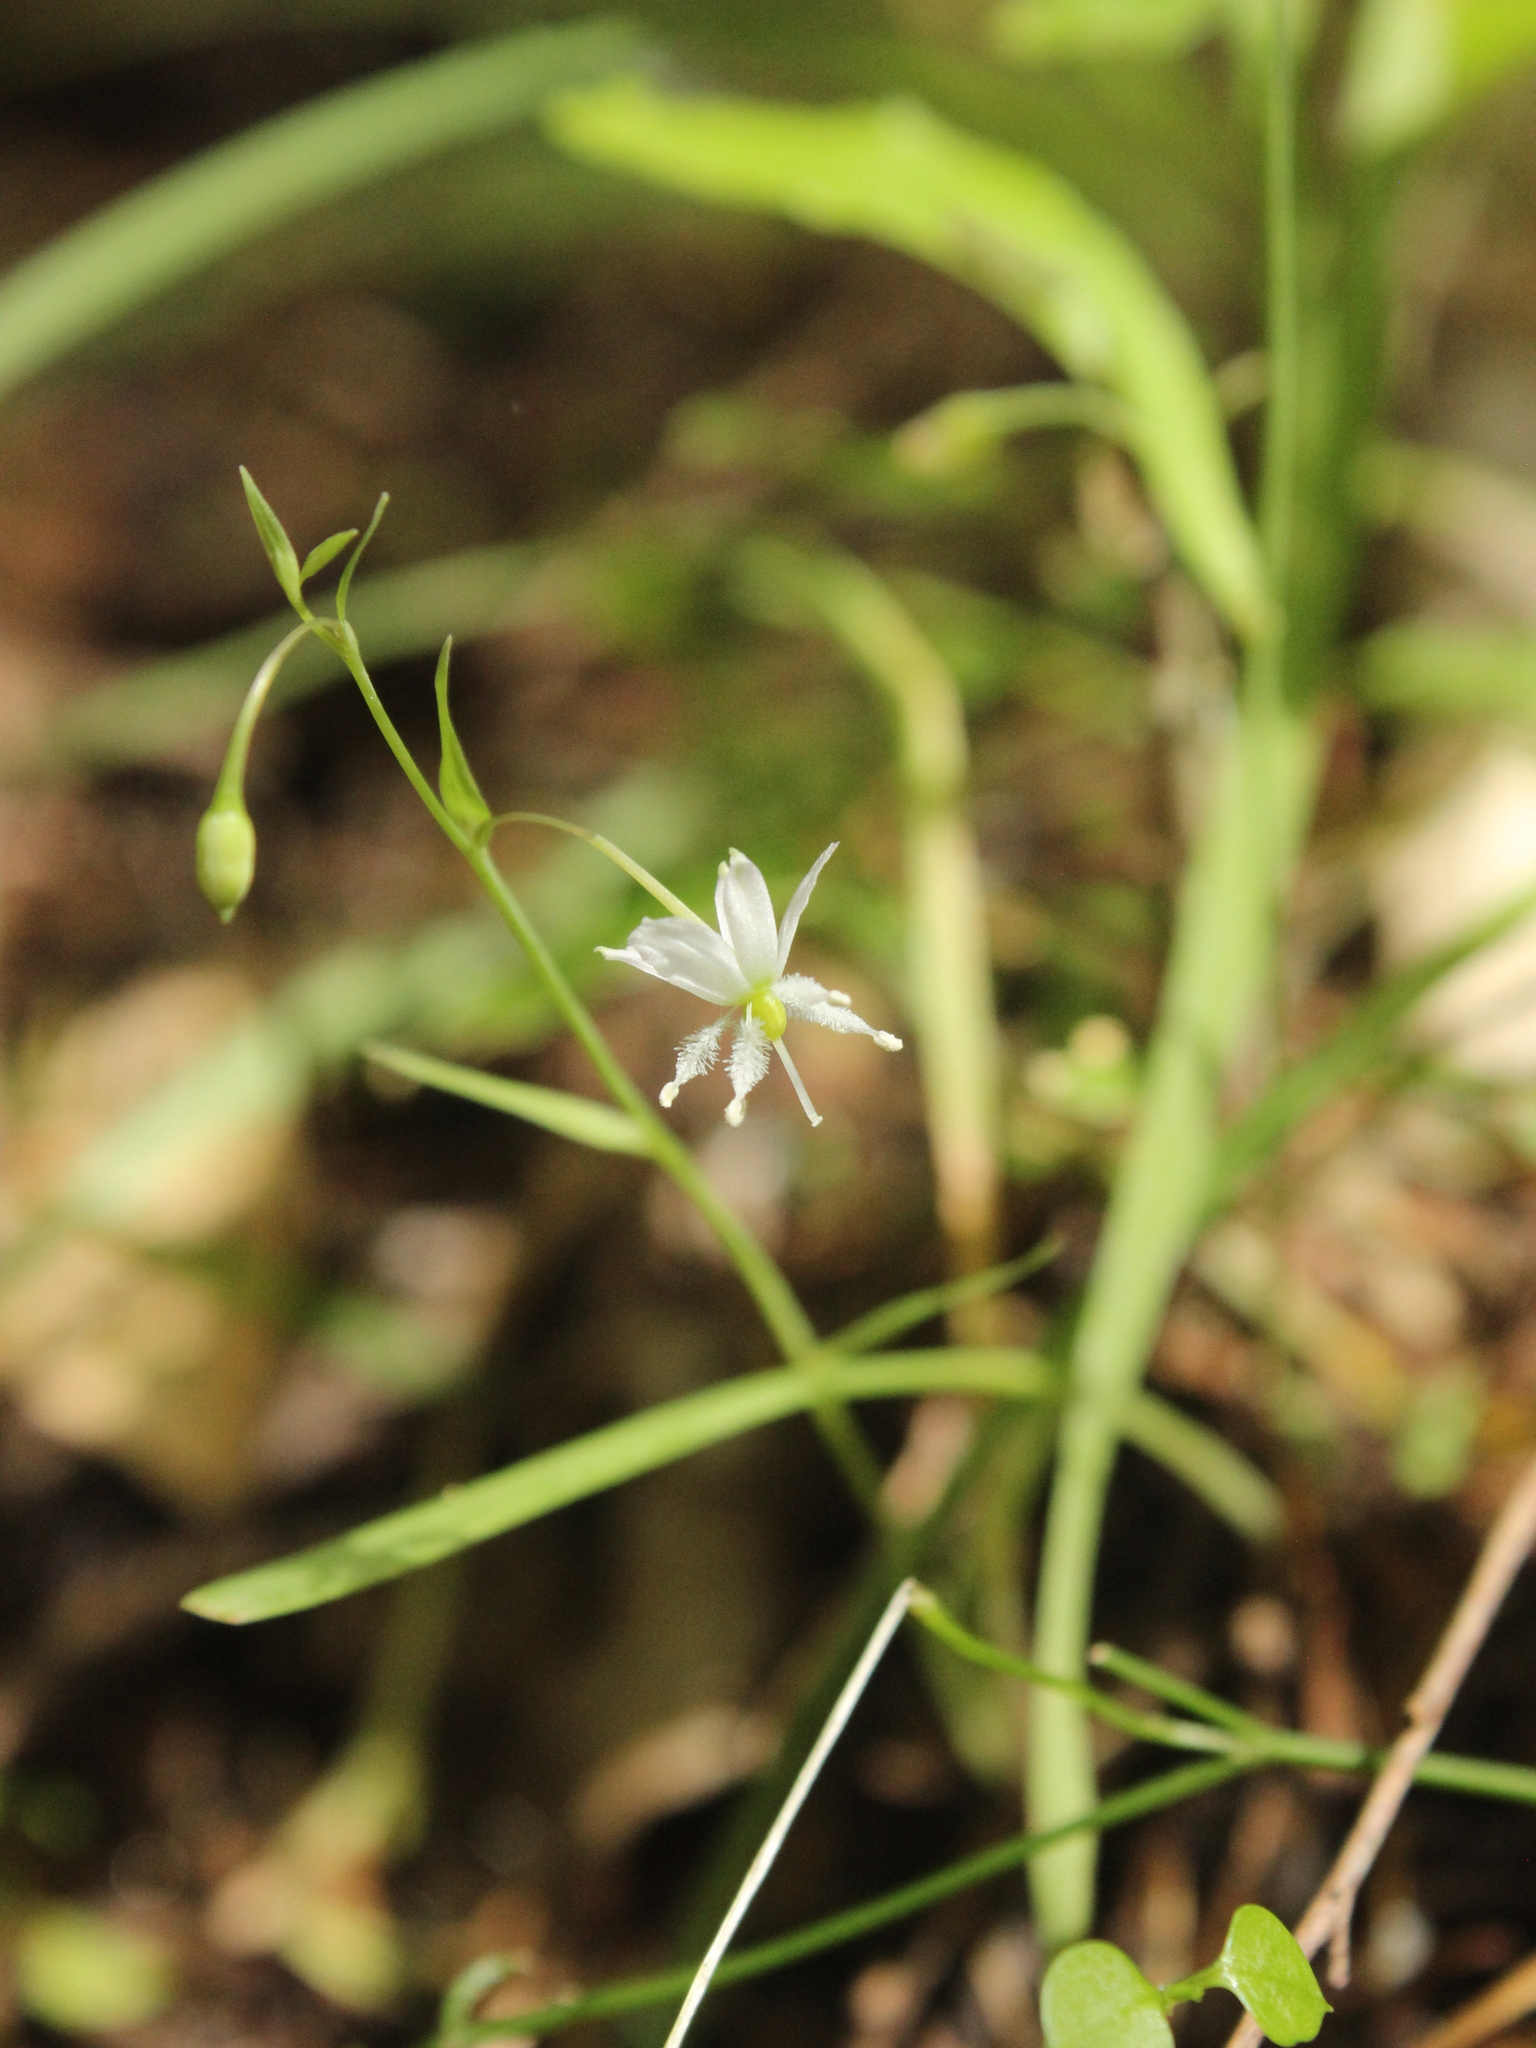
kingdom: Plantae
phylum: Tracheophyta
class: Liliopsida
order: Asparagales
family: Asparagaceae
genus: Arthropodium
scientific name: Arthropodium candidum
